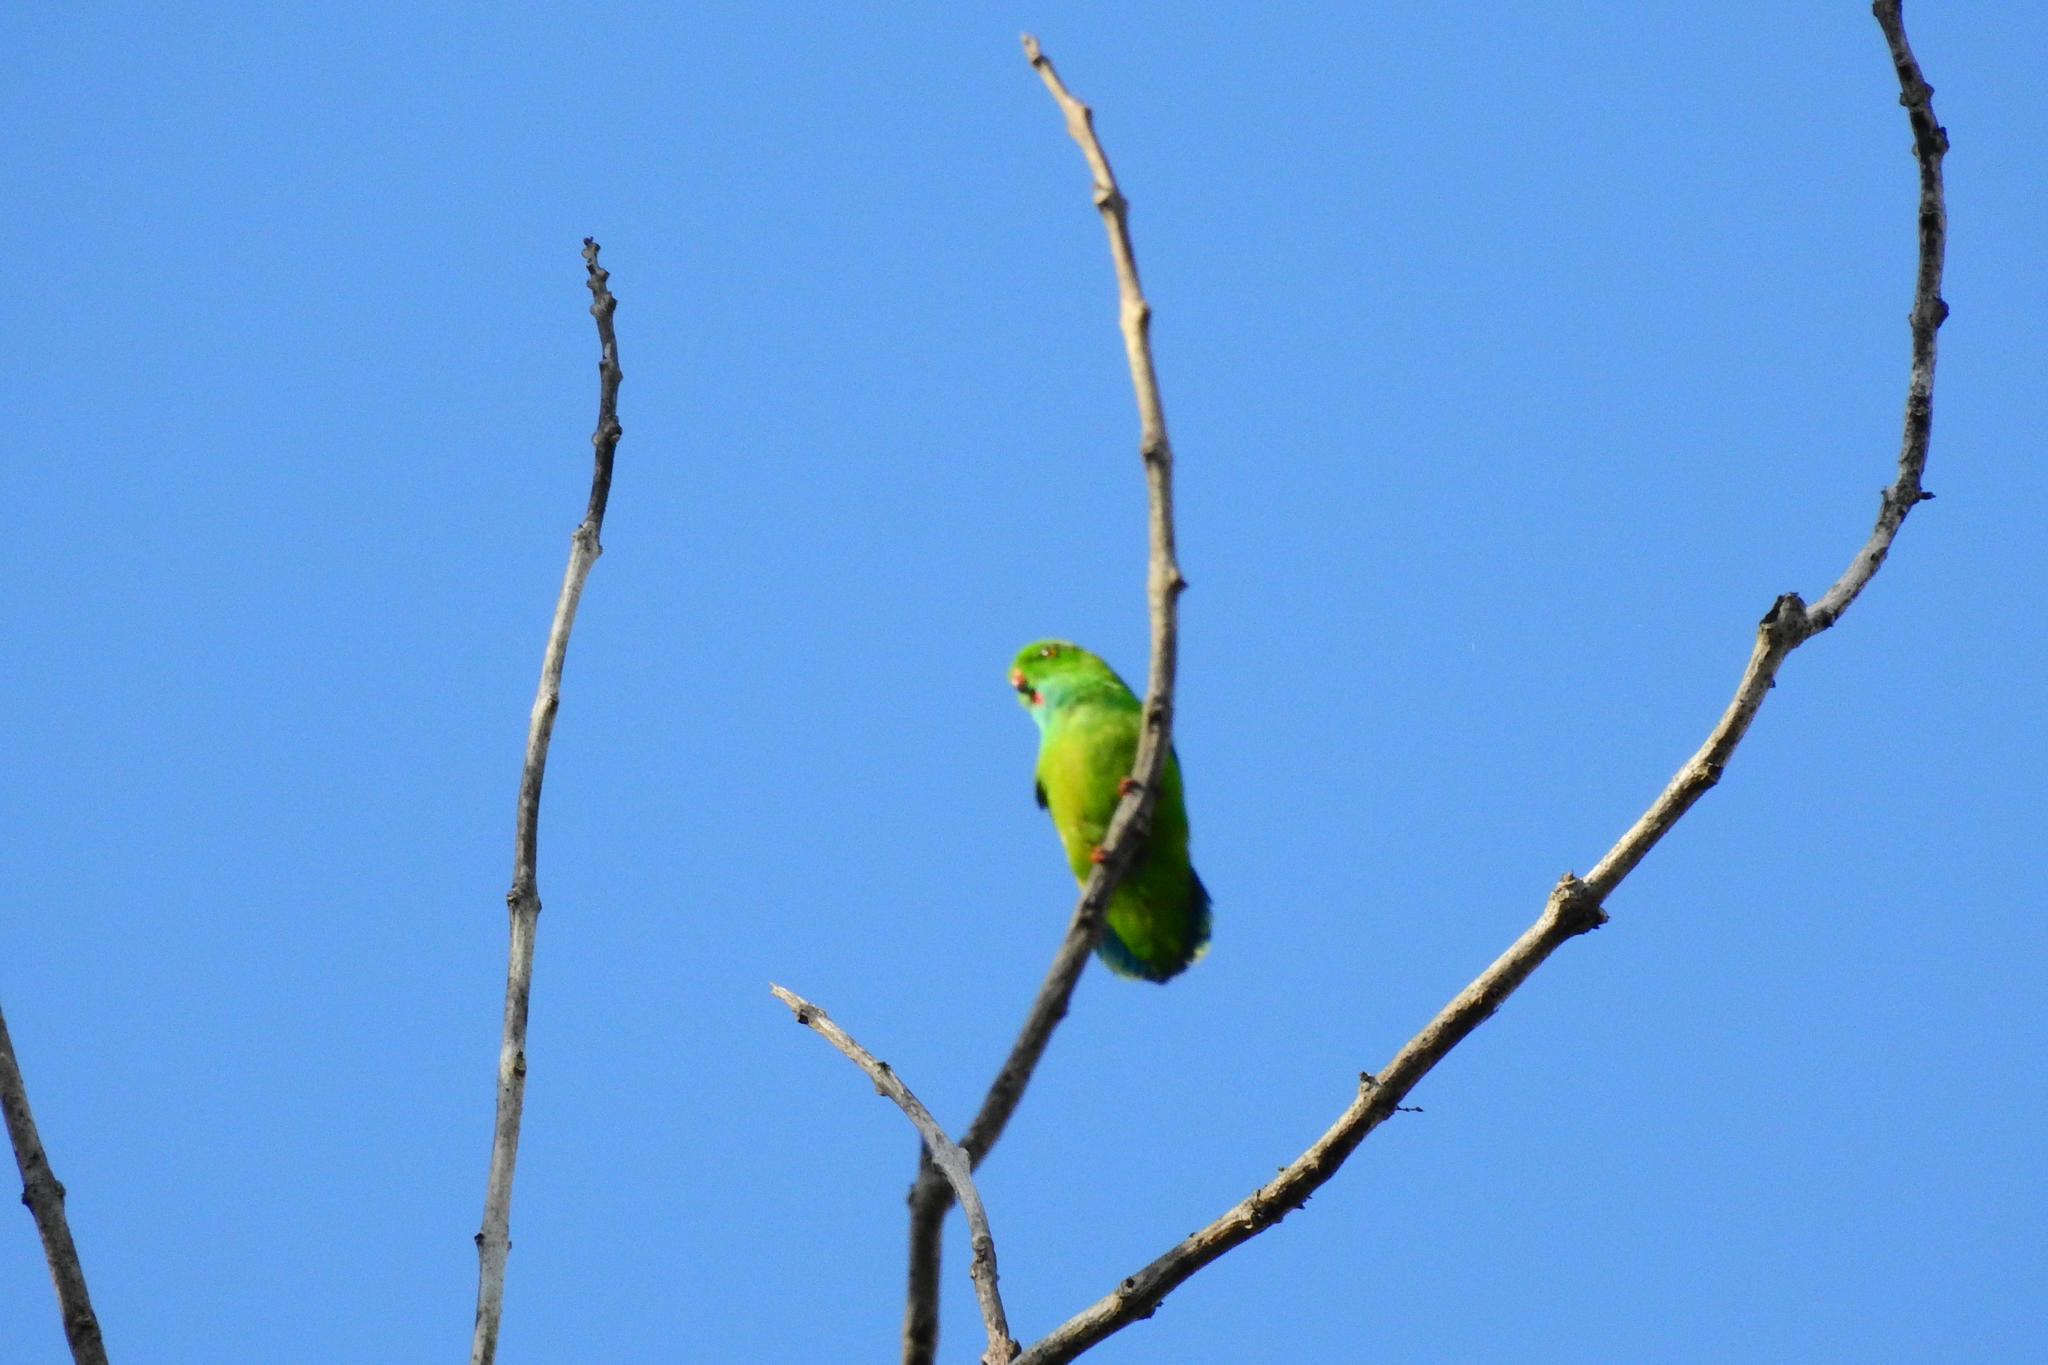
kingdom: Animalia
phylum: Chordata
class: Aves
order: Psittaciformes
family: Psittacidae
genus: Loriculus
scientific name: Loriculus exilis
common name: Pygmy hanging parrot
